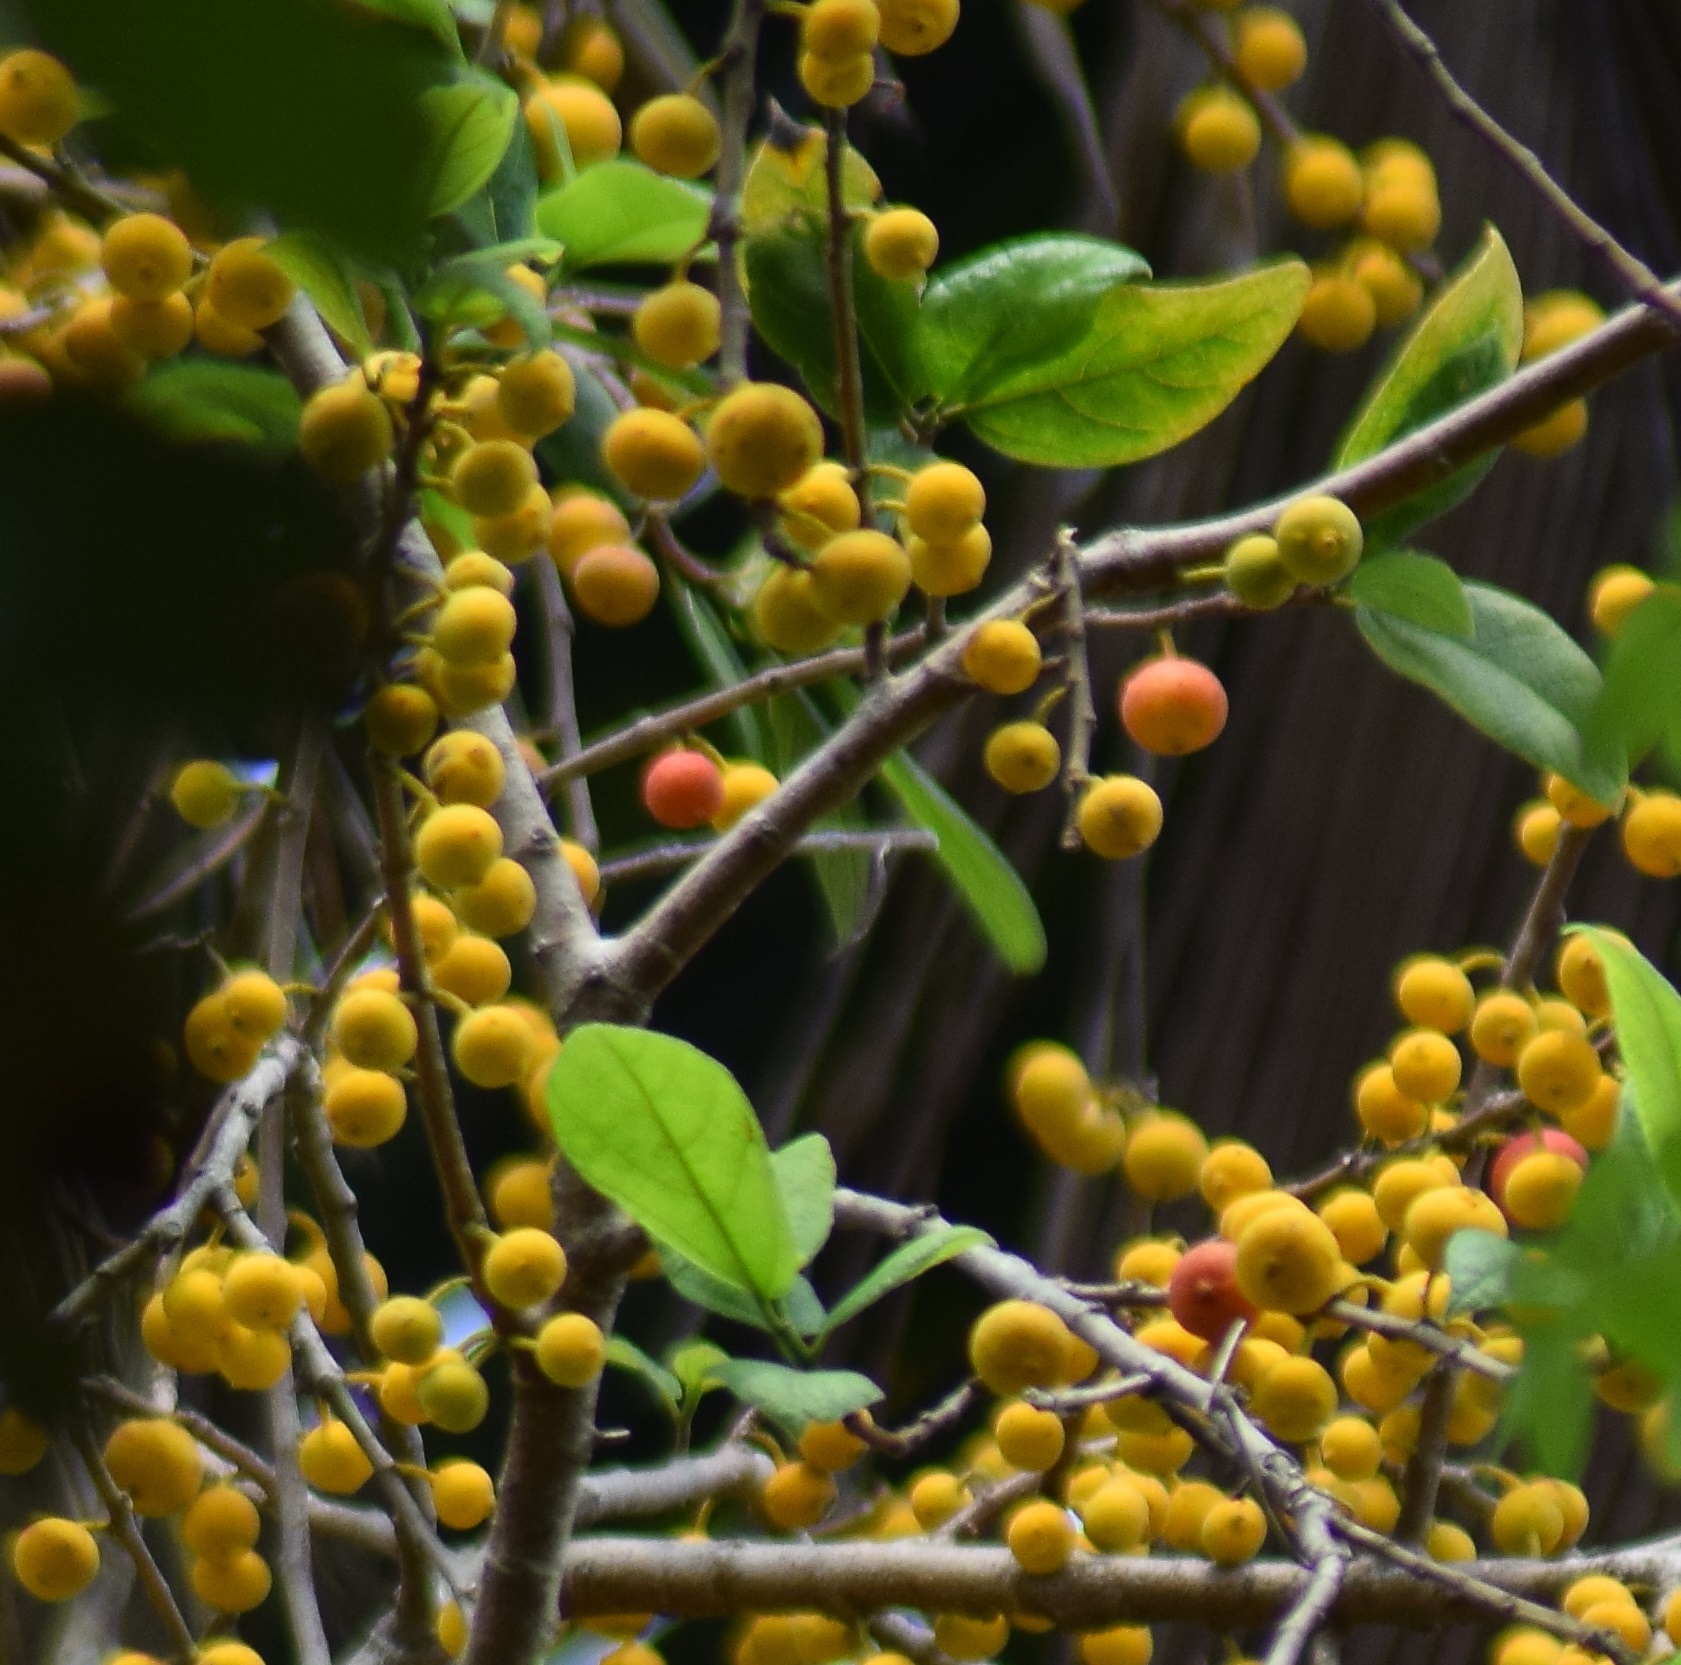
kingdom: Plantae
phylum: Tracheophyta
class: Magnoliopsida
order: Rosales
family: Moraceae
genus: Ficus
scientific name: Ficus exasperata
